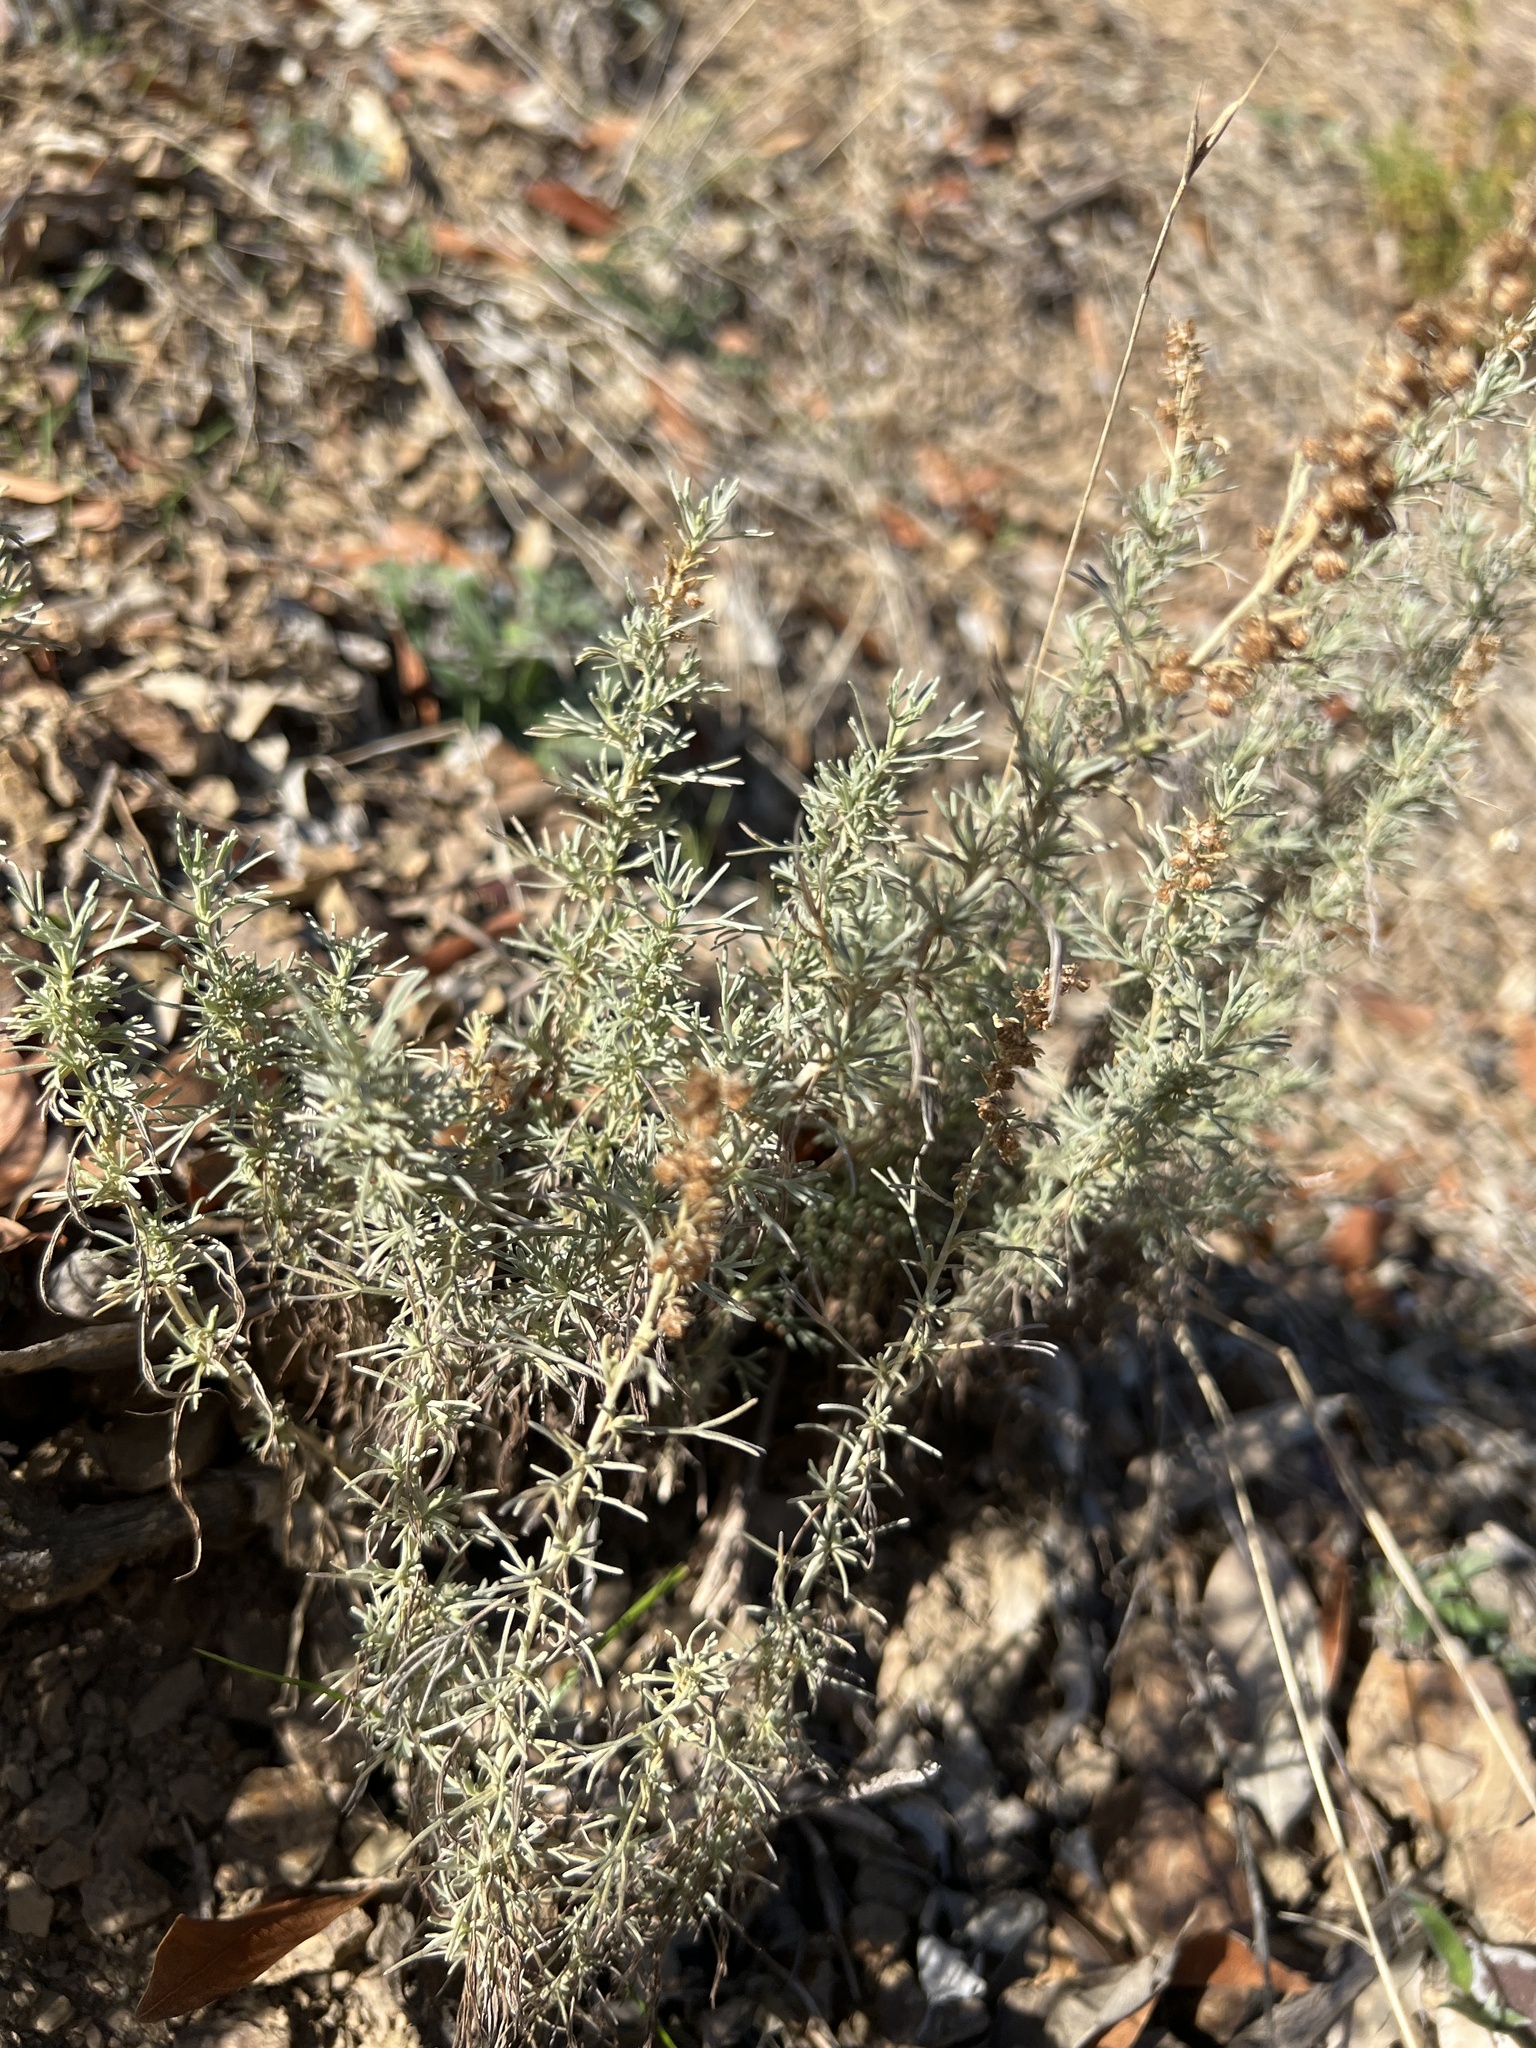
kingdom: Plantae
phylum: Tracheophyta
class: Magnoliopsida
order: Asterales
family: Asteraceae
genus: Artemisia
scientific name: Artemisia californica
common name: California sagebrush
